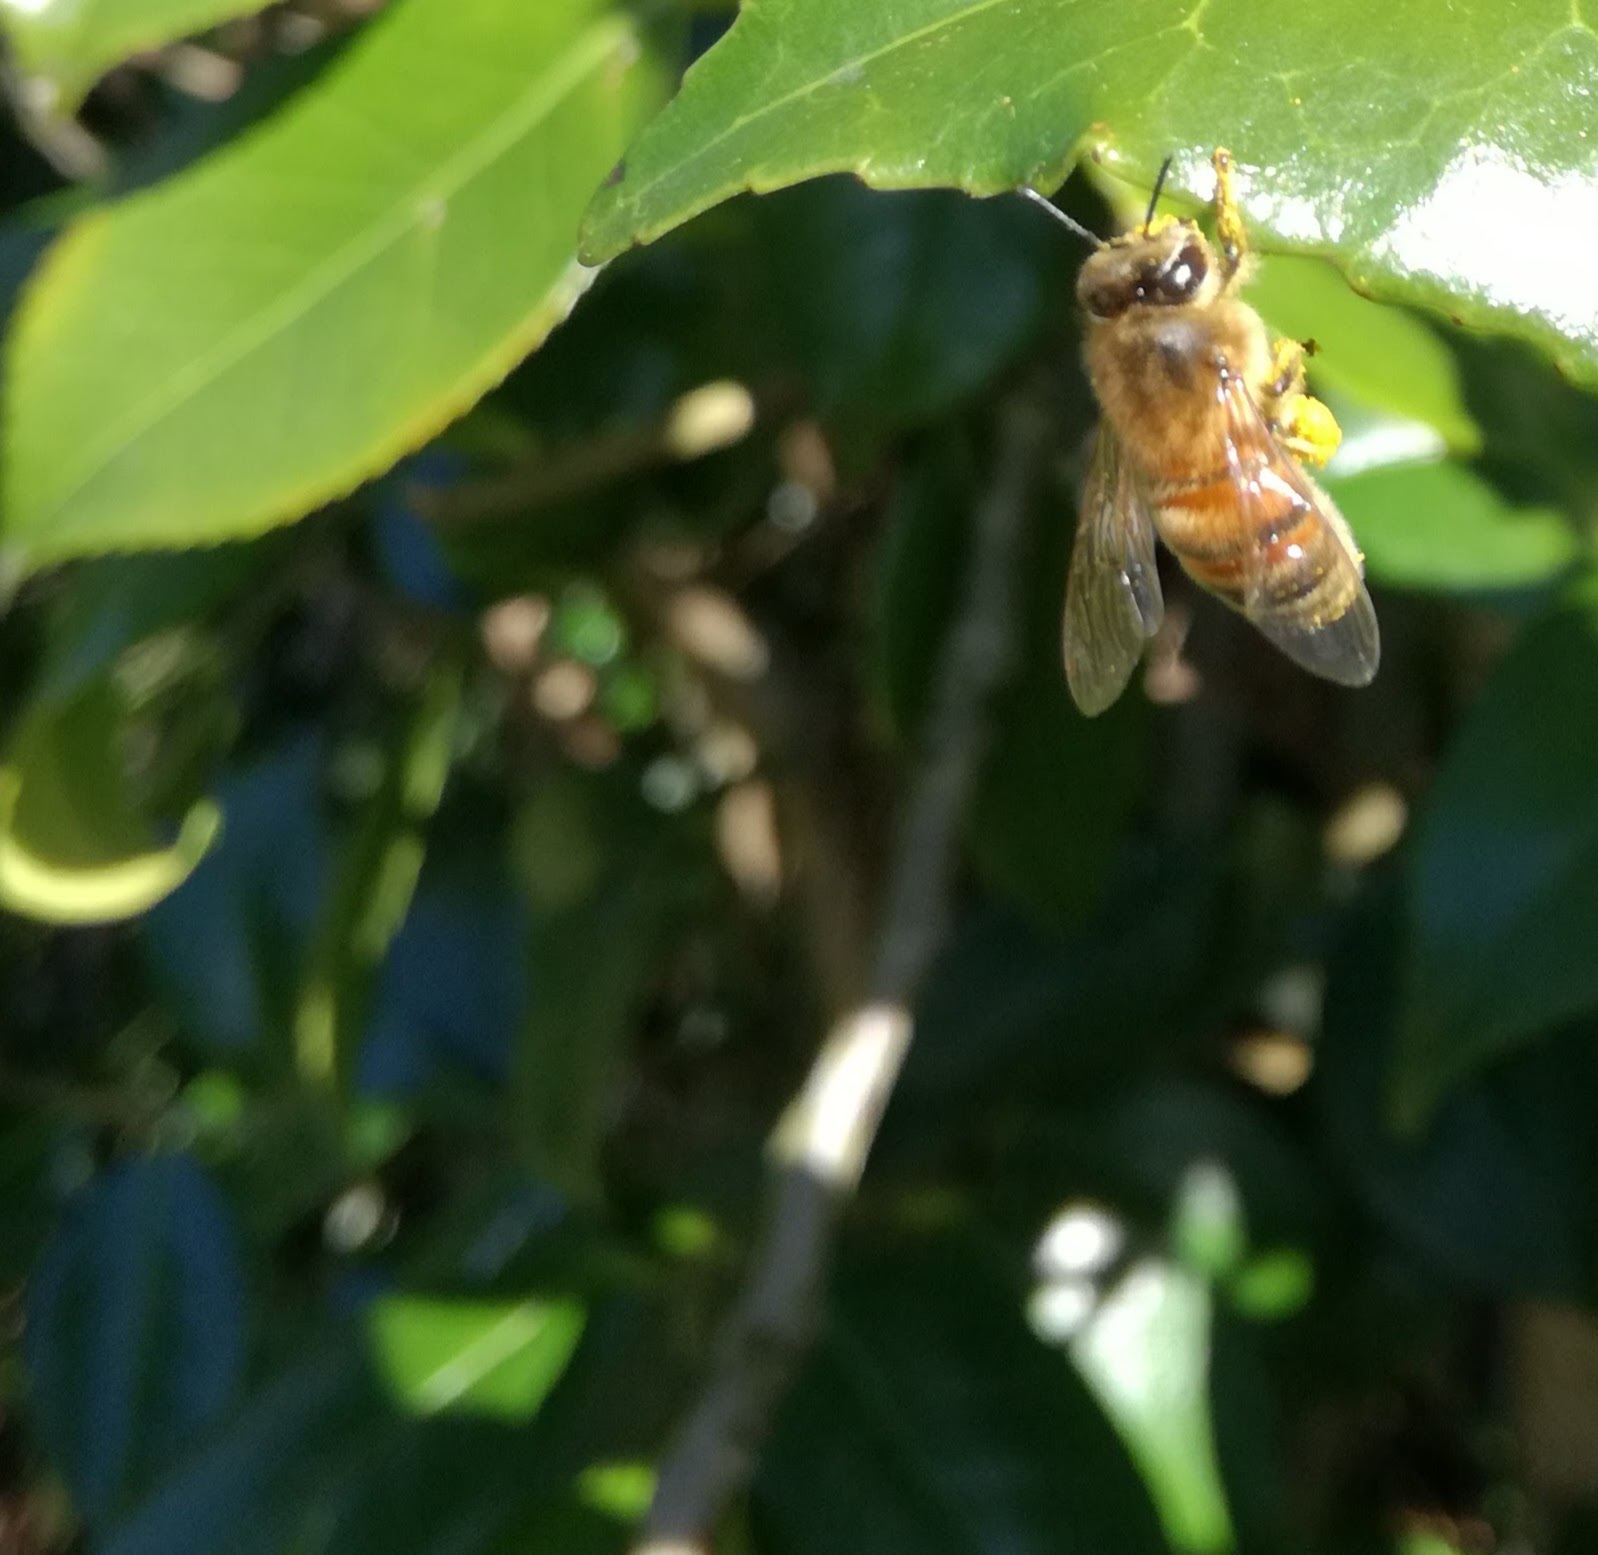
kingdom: Animalia
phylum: Arthropoda
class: Insecta
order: Hymenoptera
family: Apidae
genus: Apis
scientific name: Apis mellifera
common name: Honey bee
